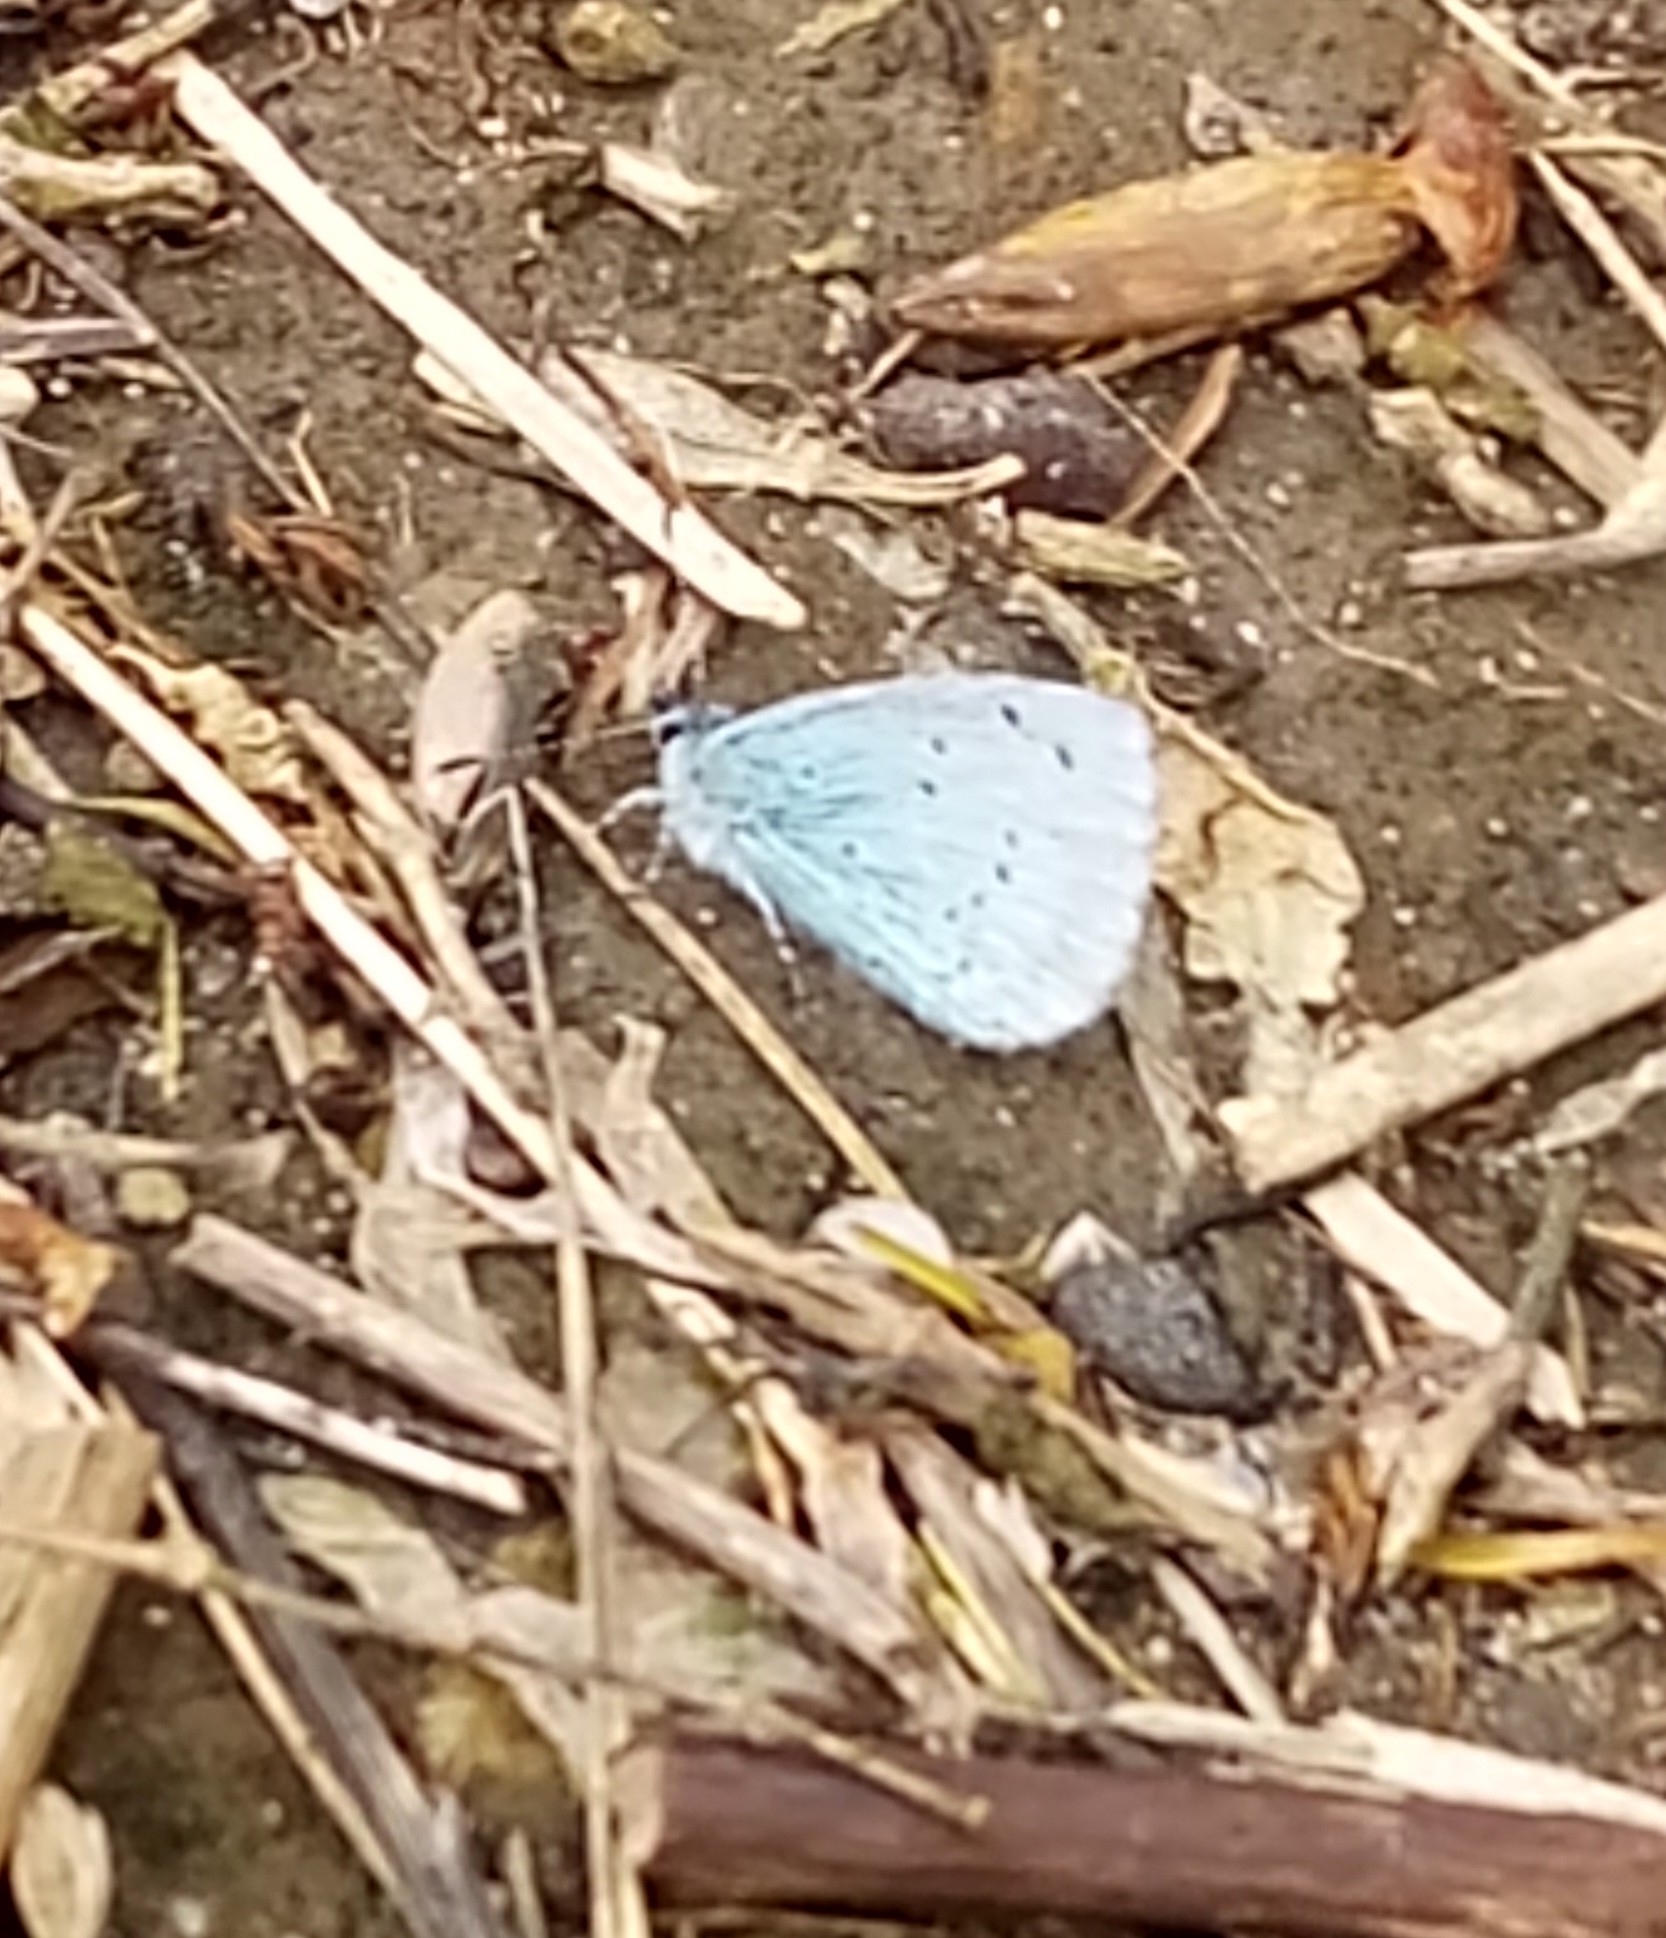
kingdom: Animalia
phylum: Arthropoda
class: Insecta
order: Lepidoptera
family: Lycaenidae
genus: Celastrina
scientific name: Celastrina argiolus
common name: Holly blue
